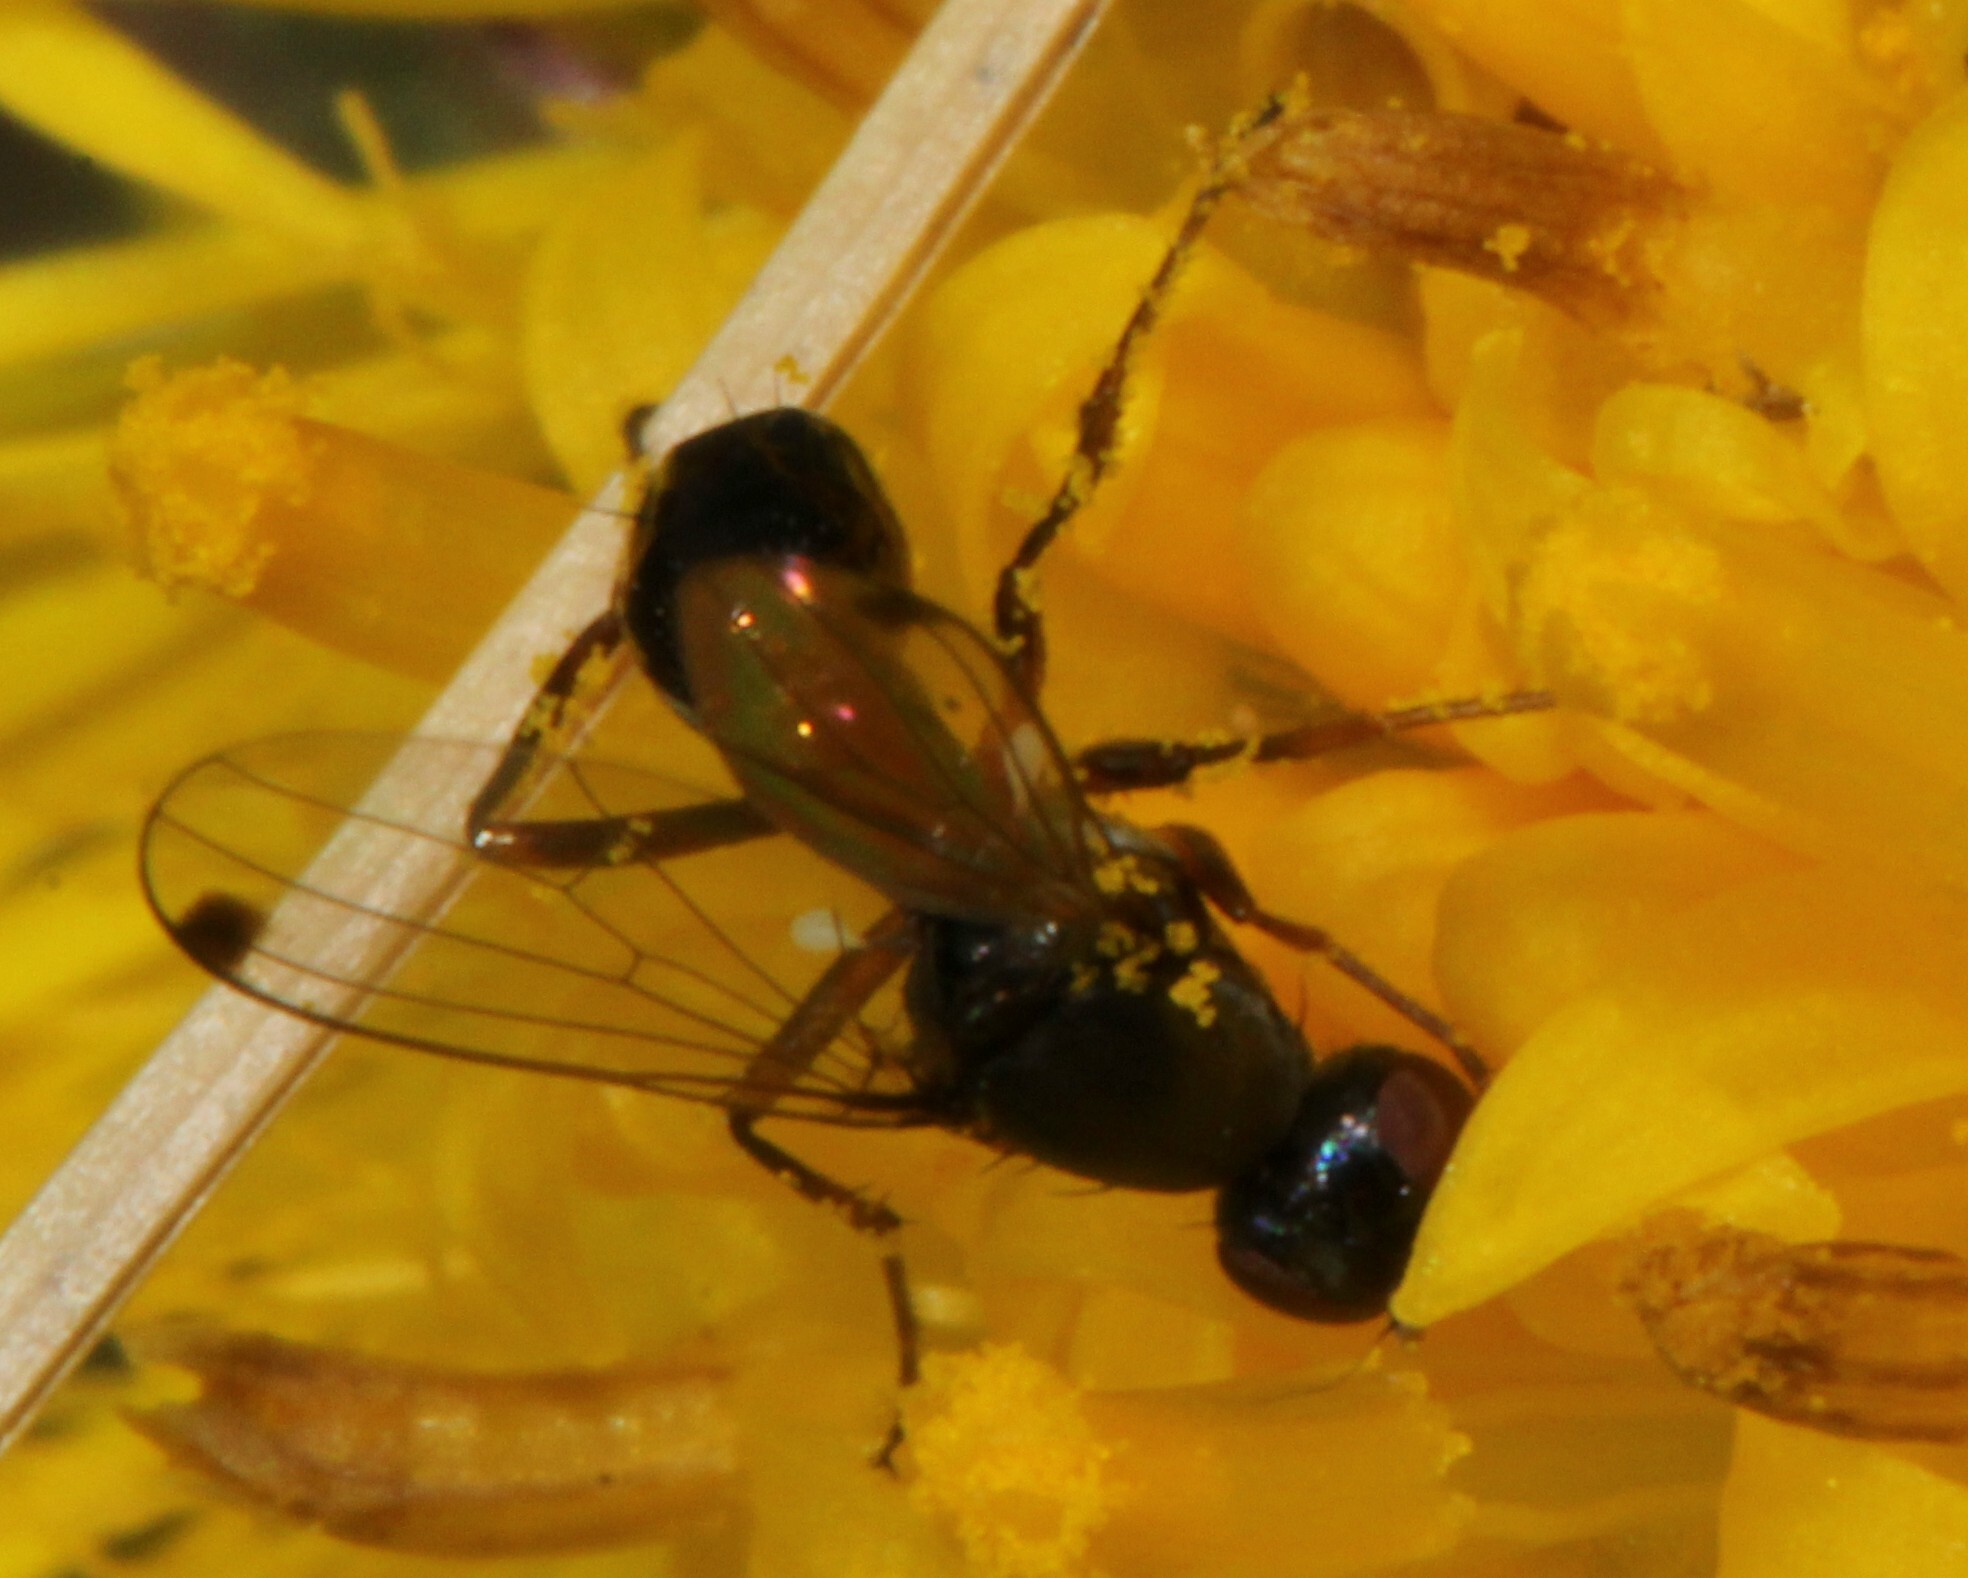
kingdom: Animalia
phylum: Arthropoda
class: Insecta
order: Diptera
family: Sepsidae
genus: Sepsis
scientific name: Sepsis
